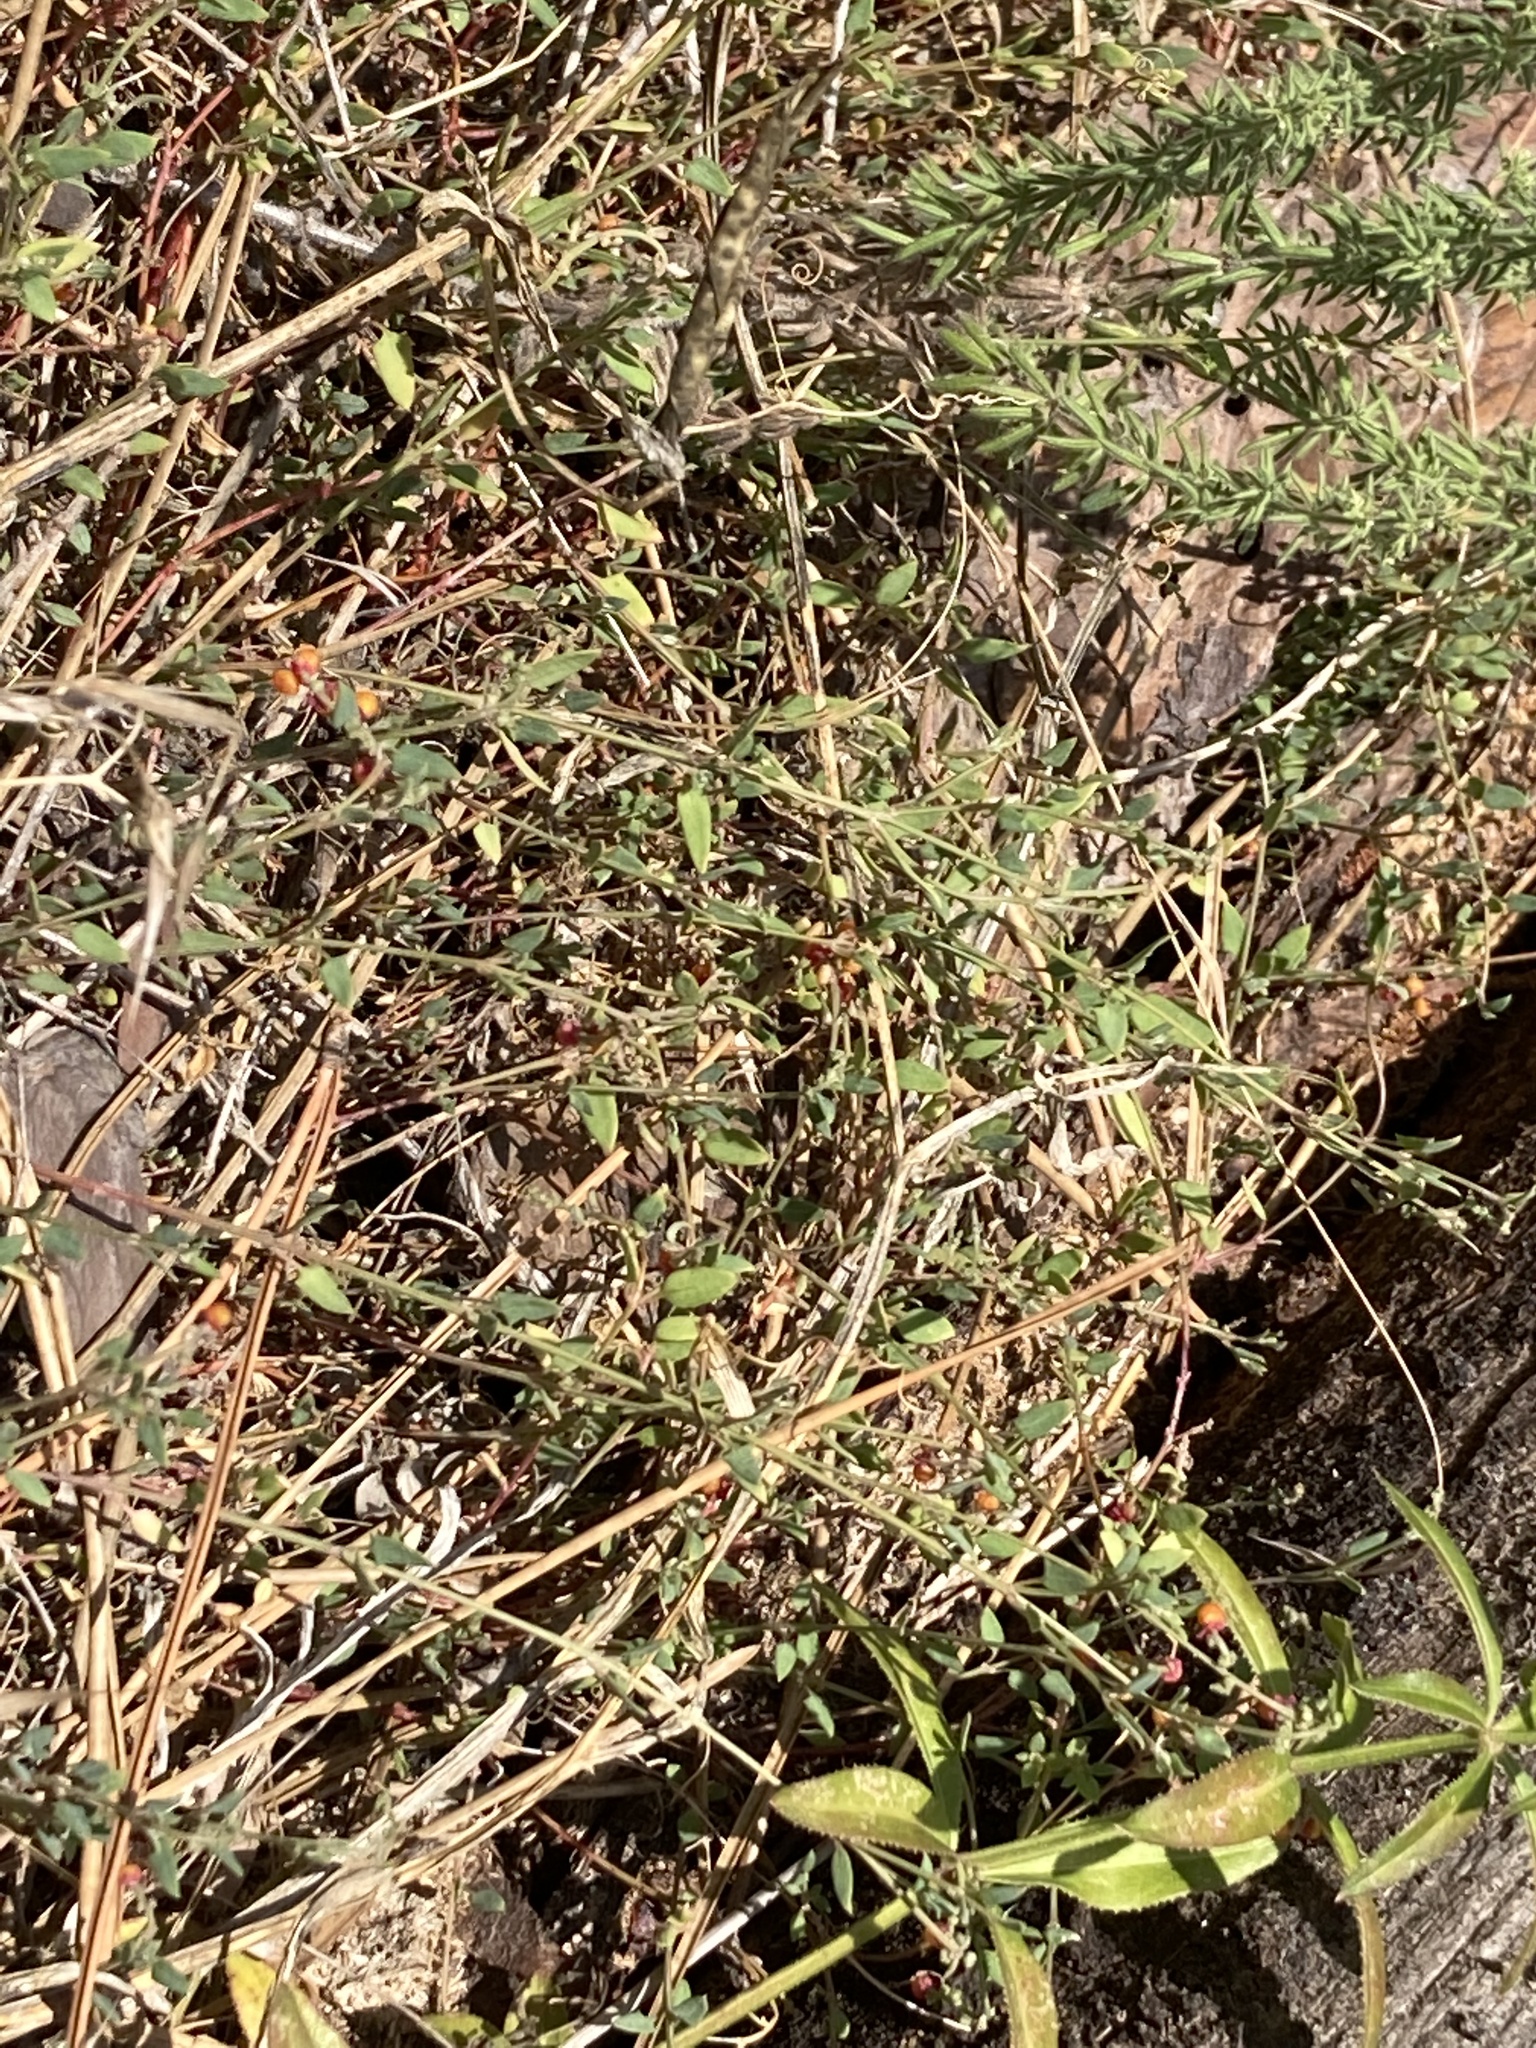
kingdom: Plantae
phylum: Tracheophyta
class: Magnoliopsida
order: Caryophyllales
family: Amaranthaceae
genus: Chenopodium
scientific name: Chenopodium nutans
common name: Climbing-saltbush
